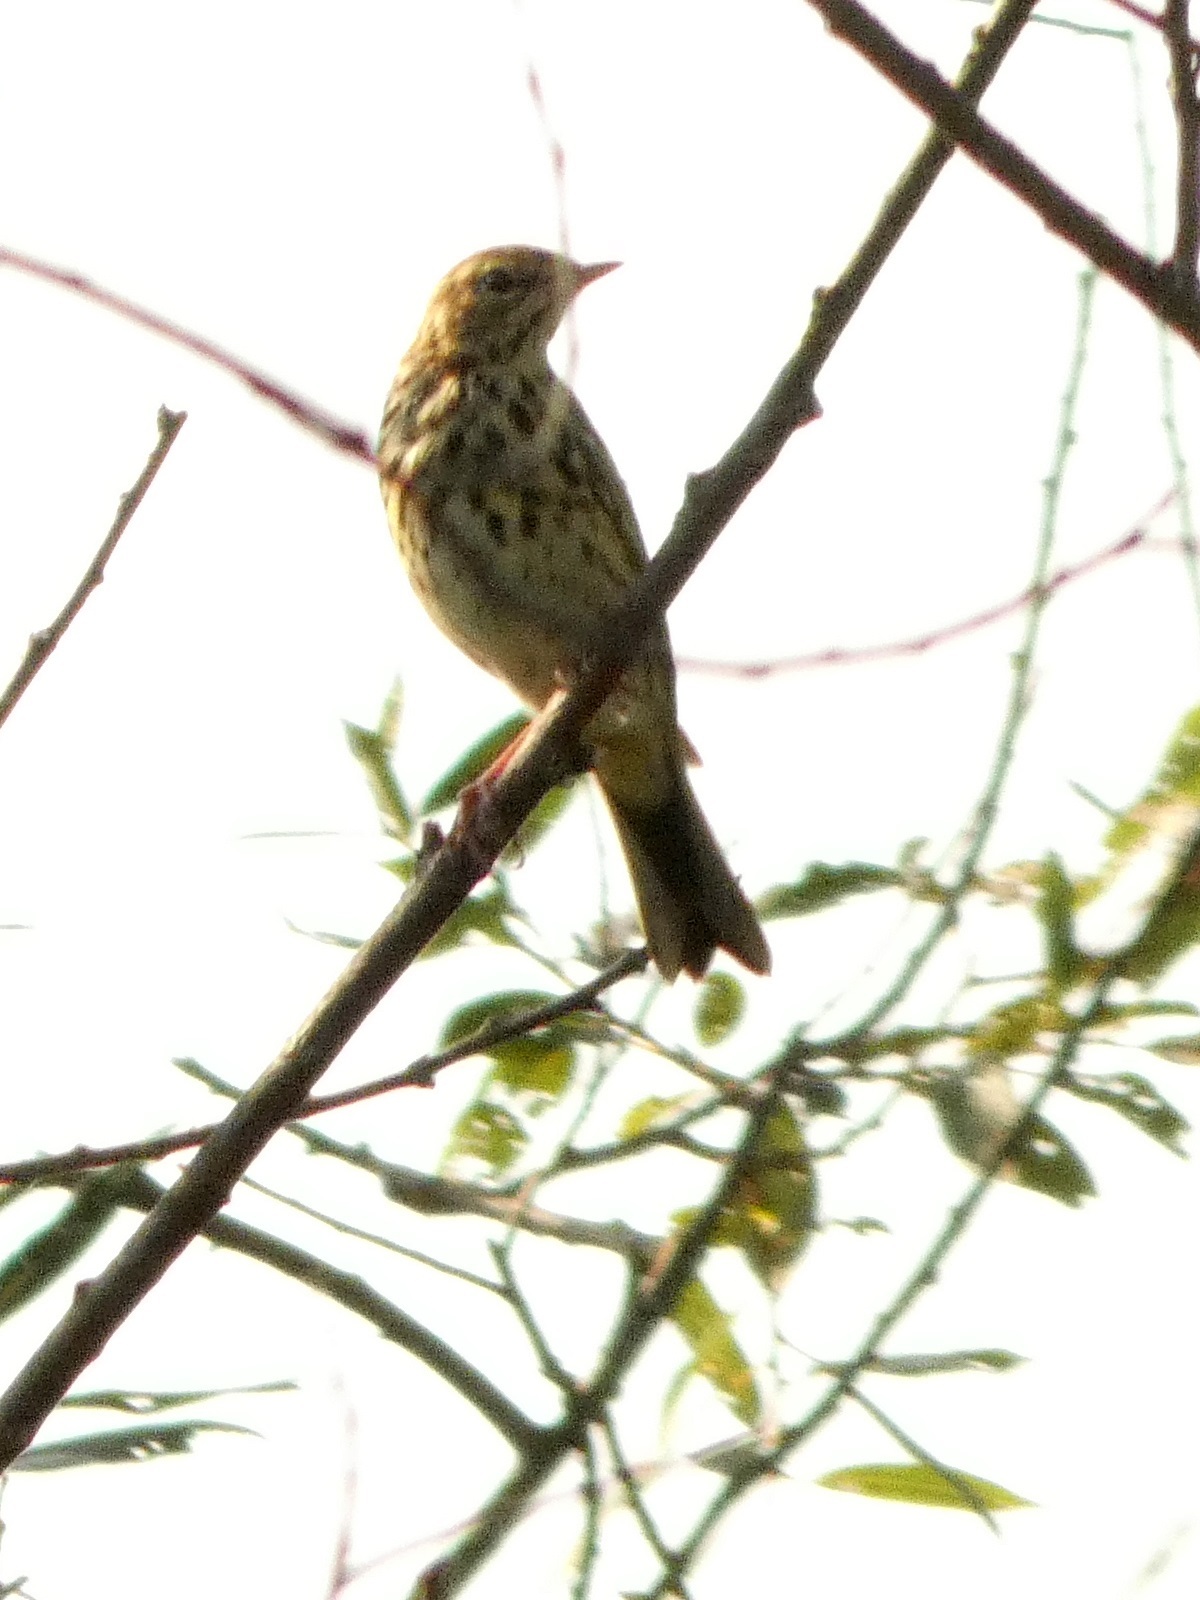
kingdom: Animalia
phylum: Chordata
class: Aves
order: Passeriformes
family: Motacillidae
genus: Anthus
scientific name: Anthus trivialis
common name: Tree pipit
